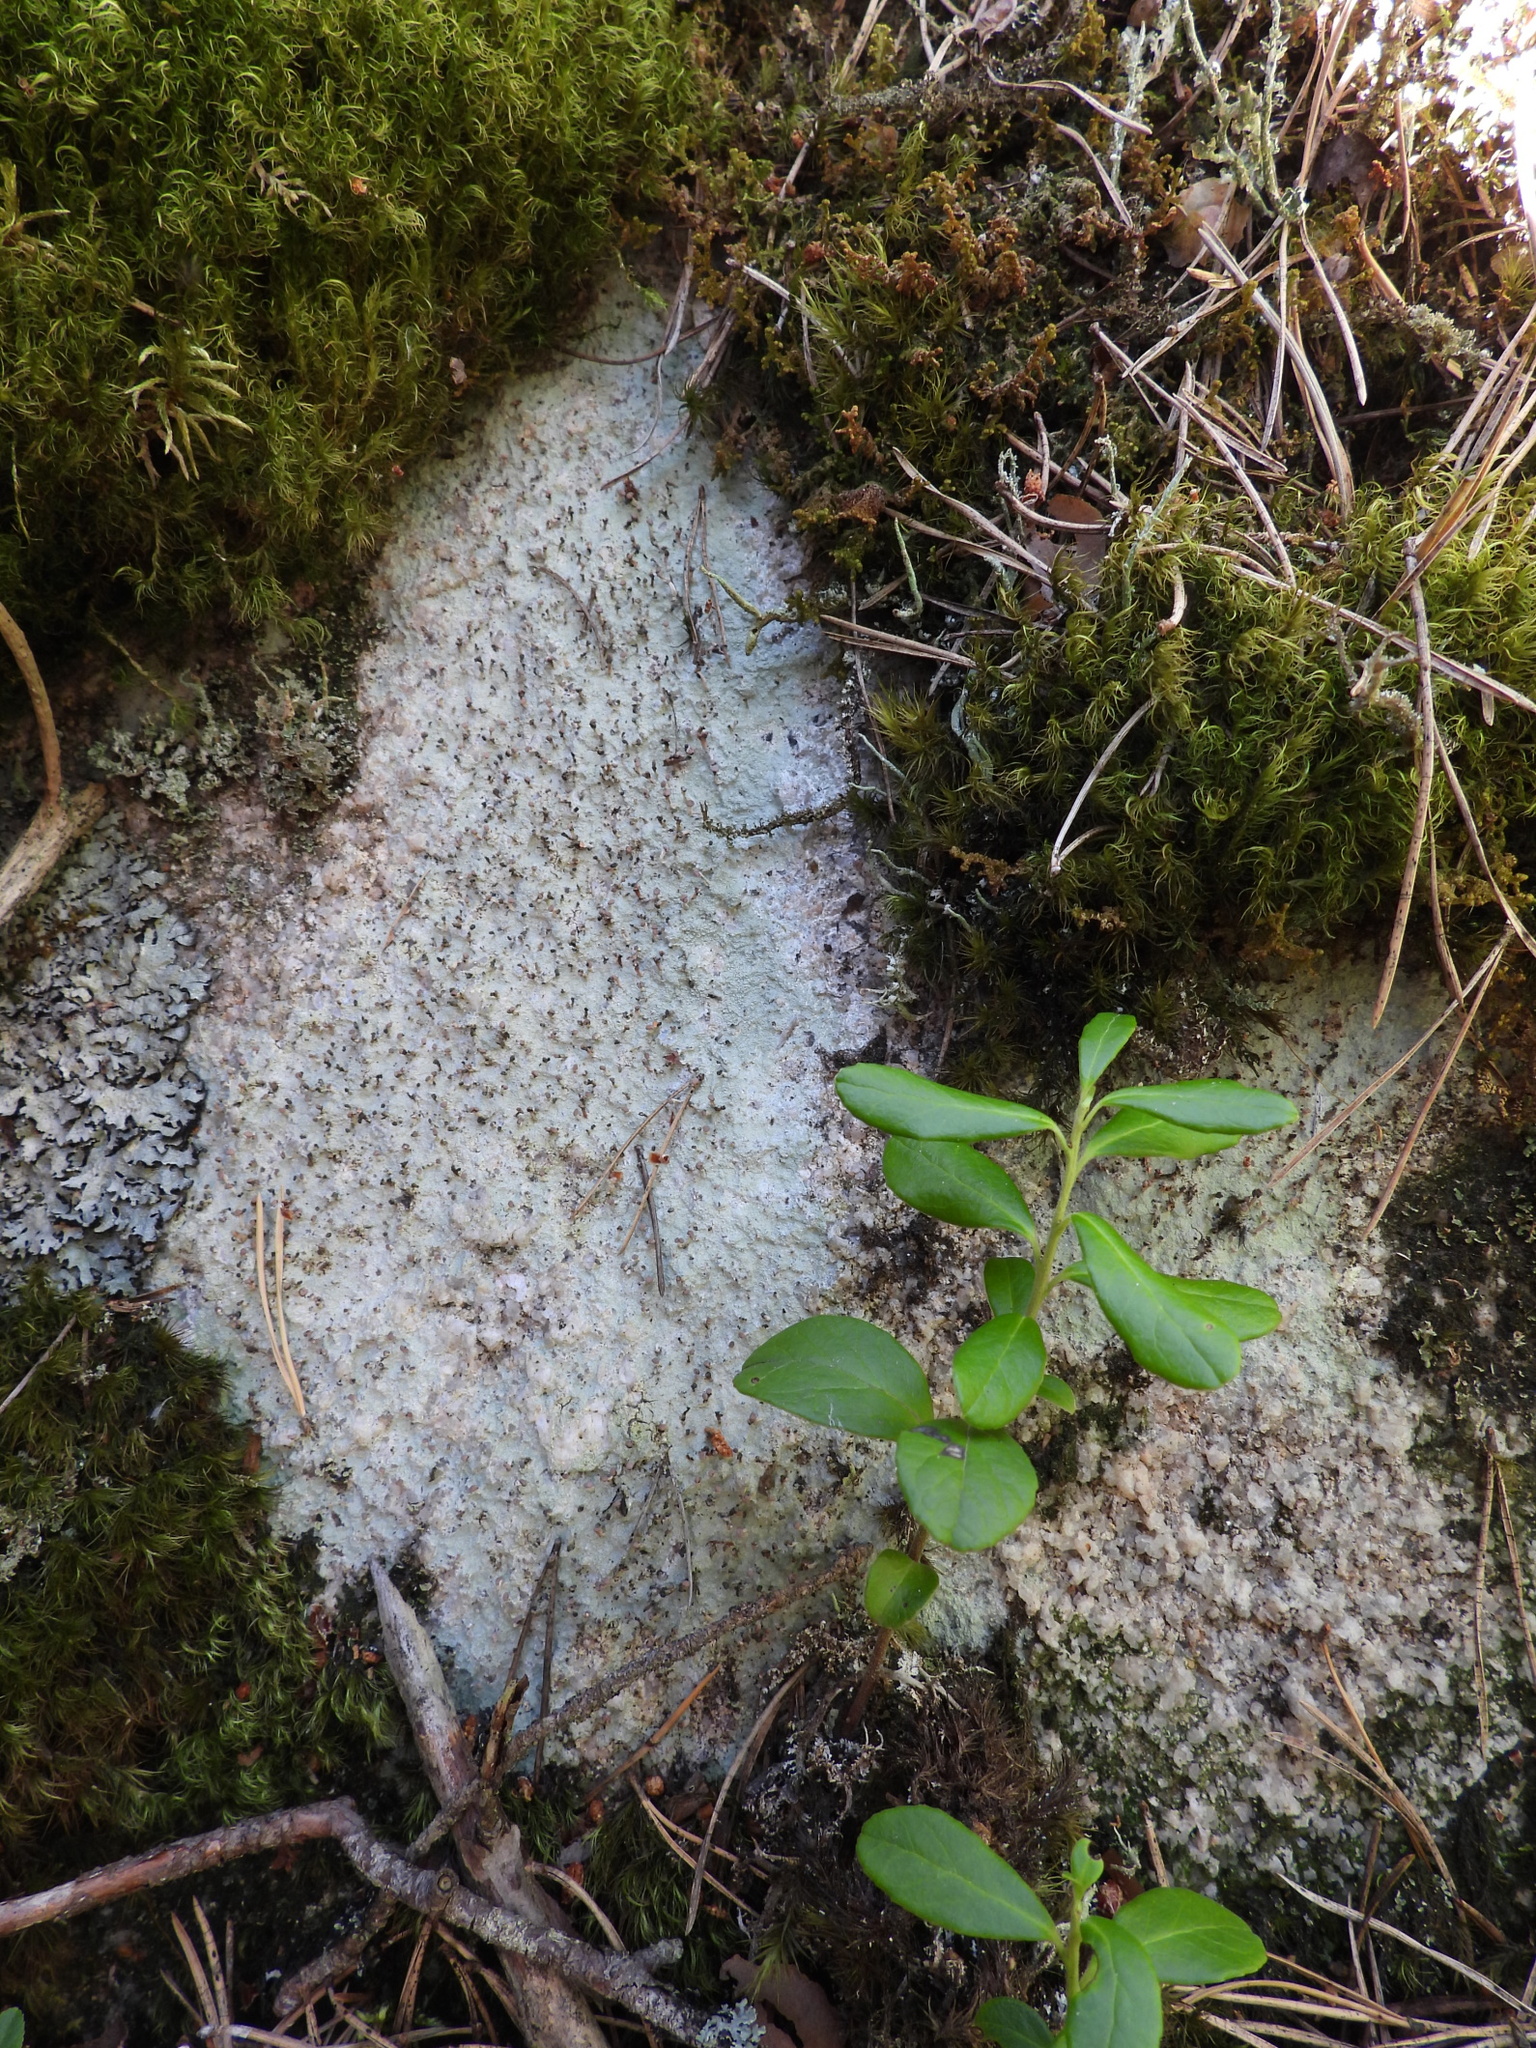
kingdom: Fungi
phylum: Ascomycota
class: Lecanoromycetes
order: Baeomycetales
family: Baeomycetaceae
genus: Baeomyces
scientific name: Baeomyces rufus
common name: Brown beret lichen
